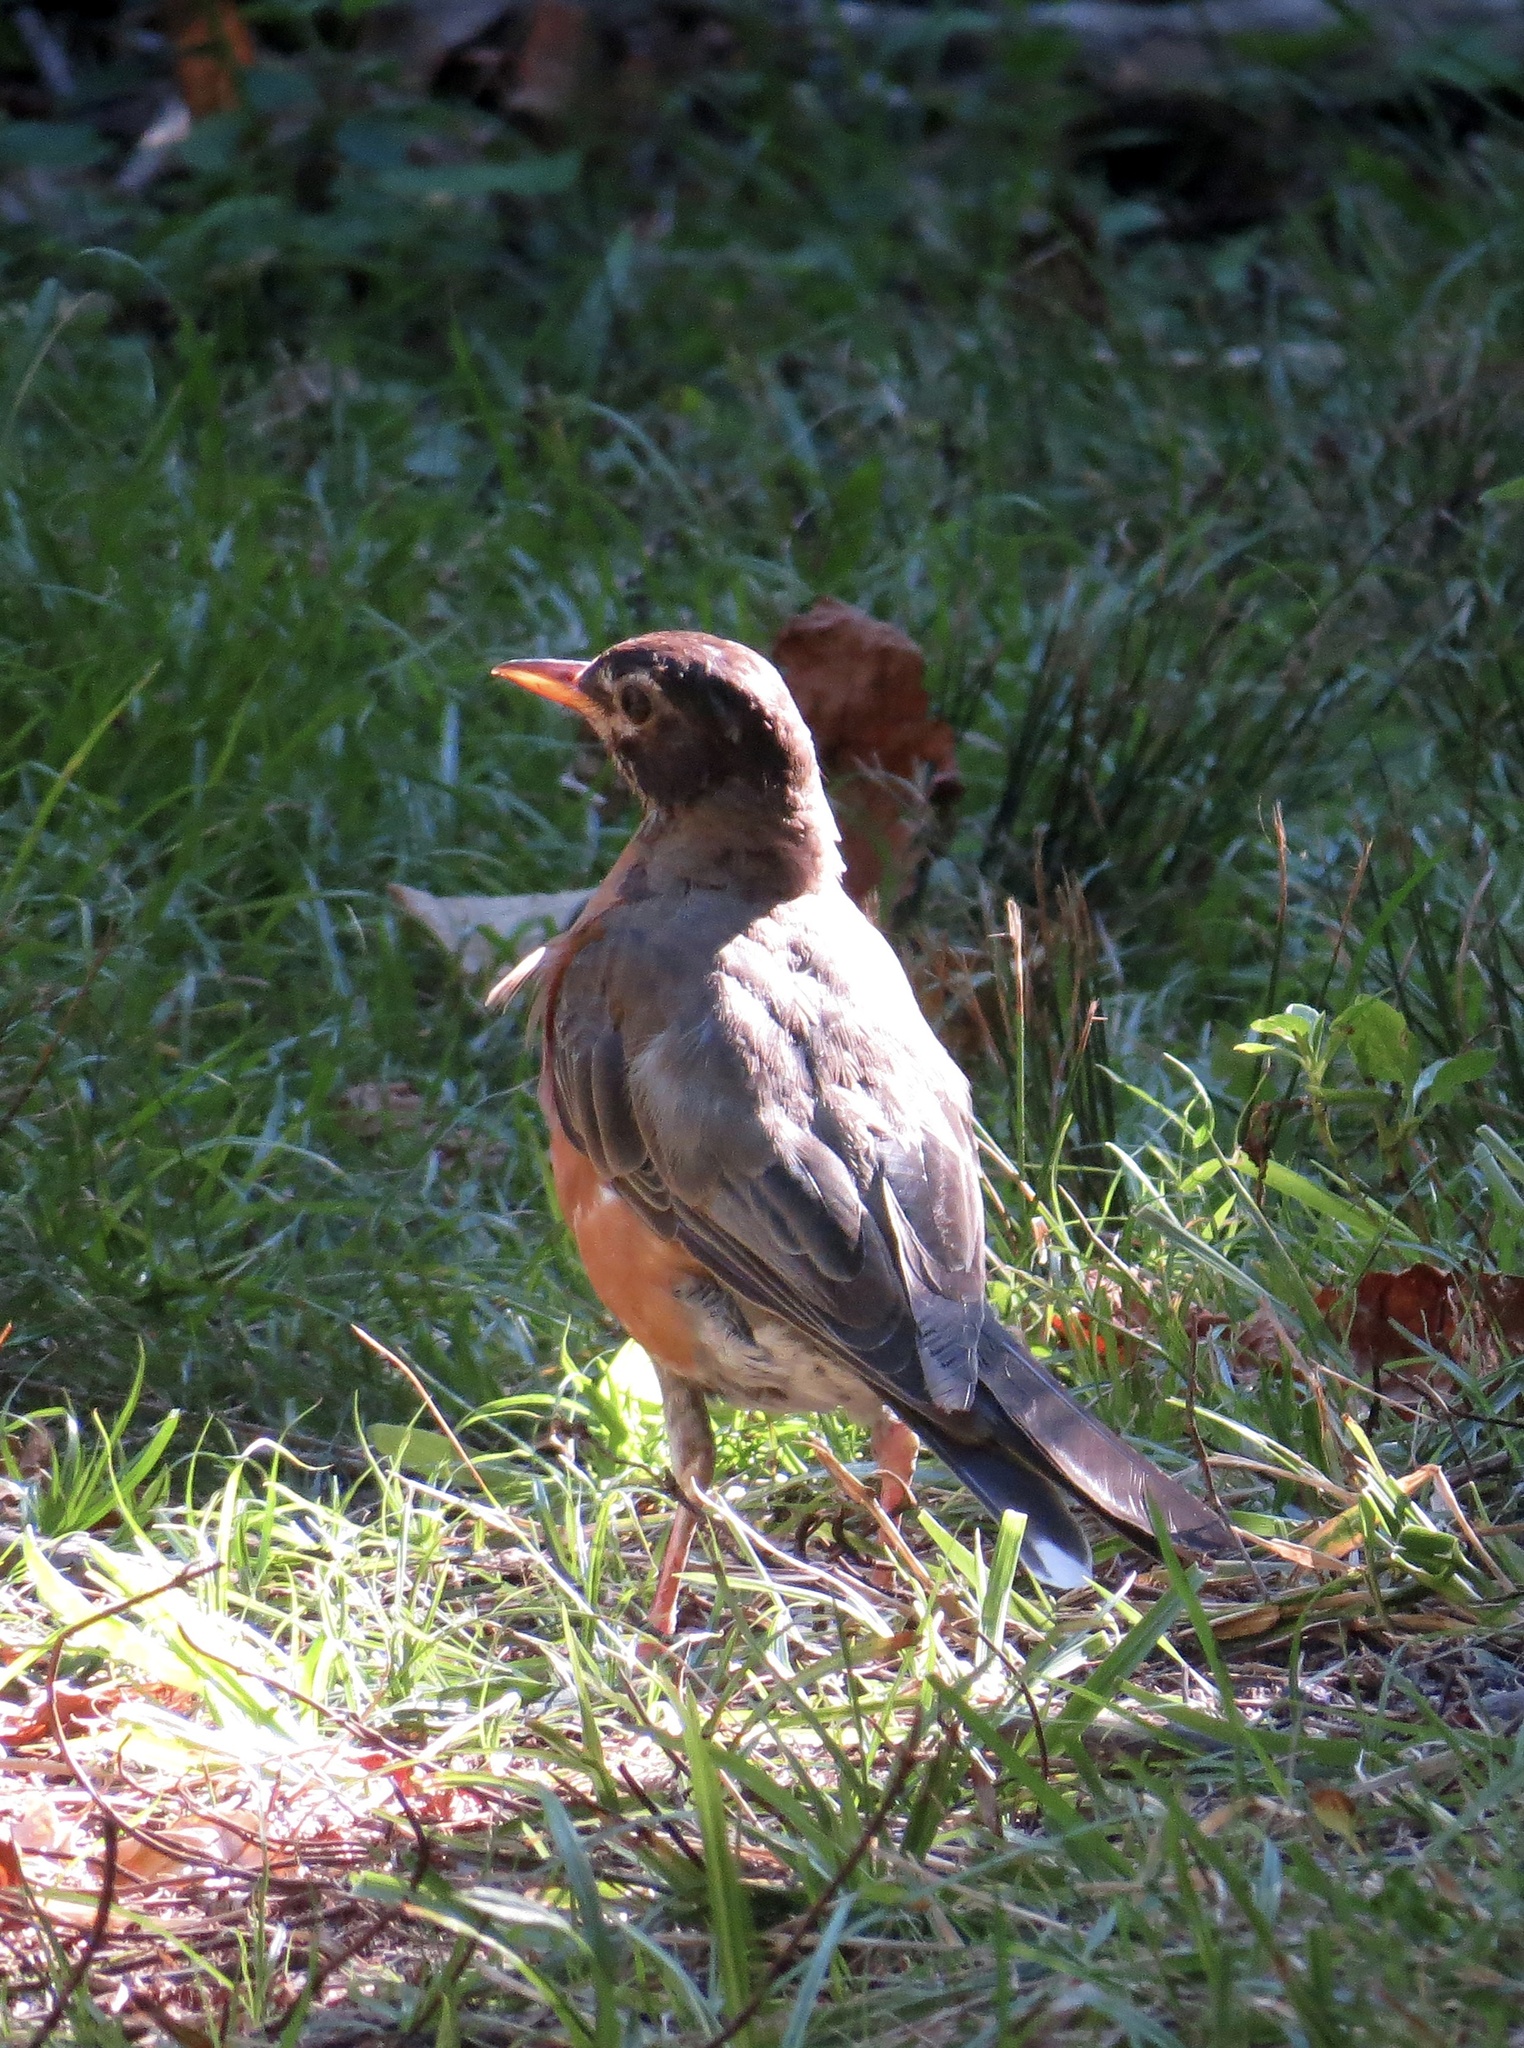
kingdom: Animalia
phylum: Chordata
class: Aves
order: Passeriformes
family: Turdidae
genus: Turdus
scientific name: Turdus migratorius
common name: American robin
